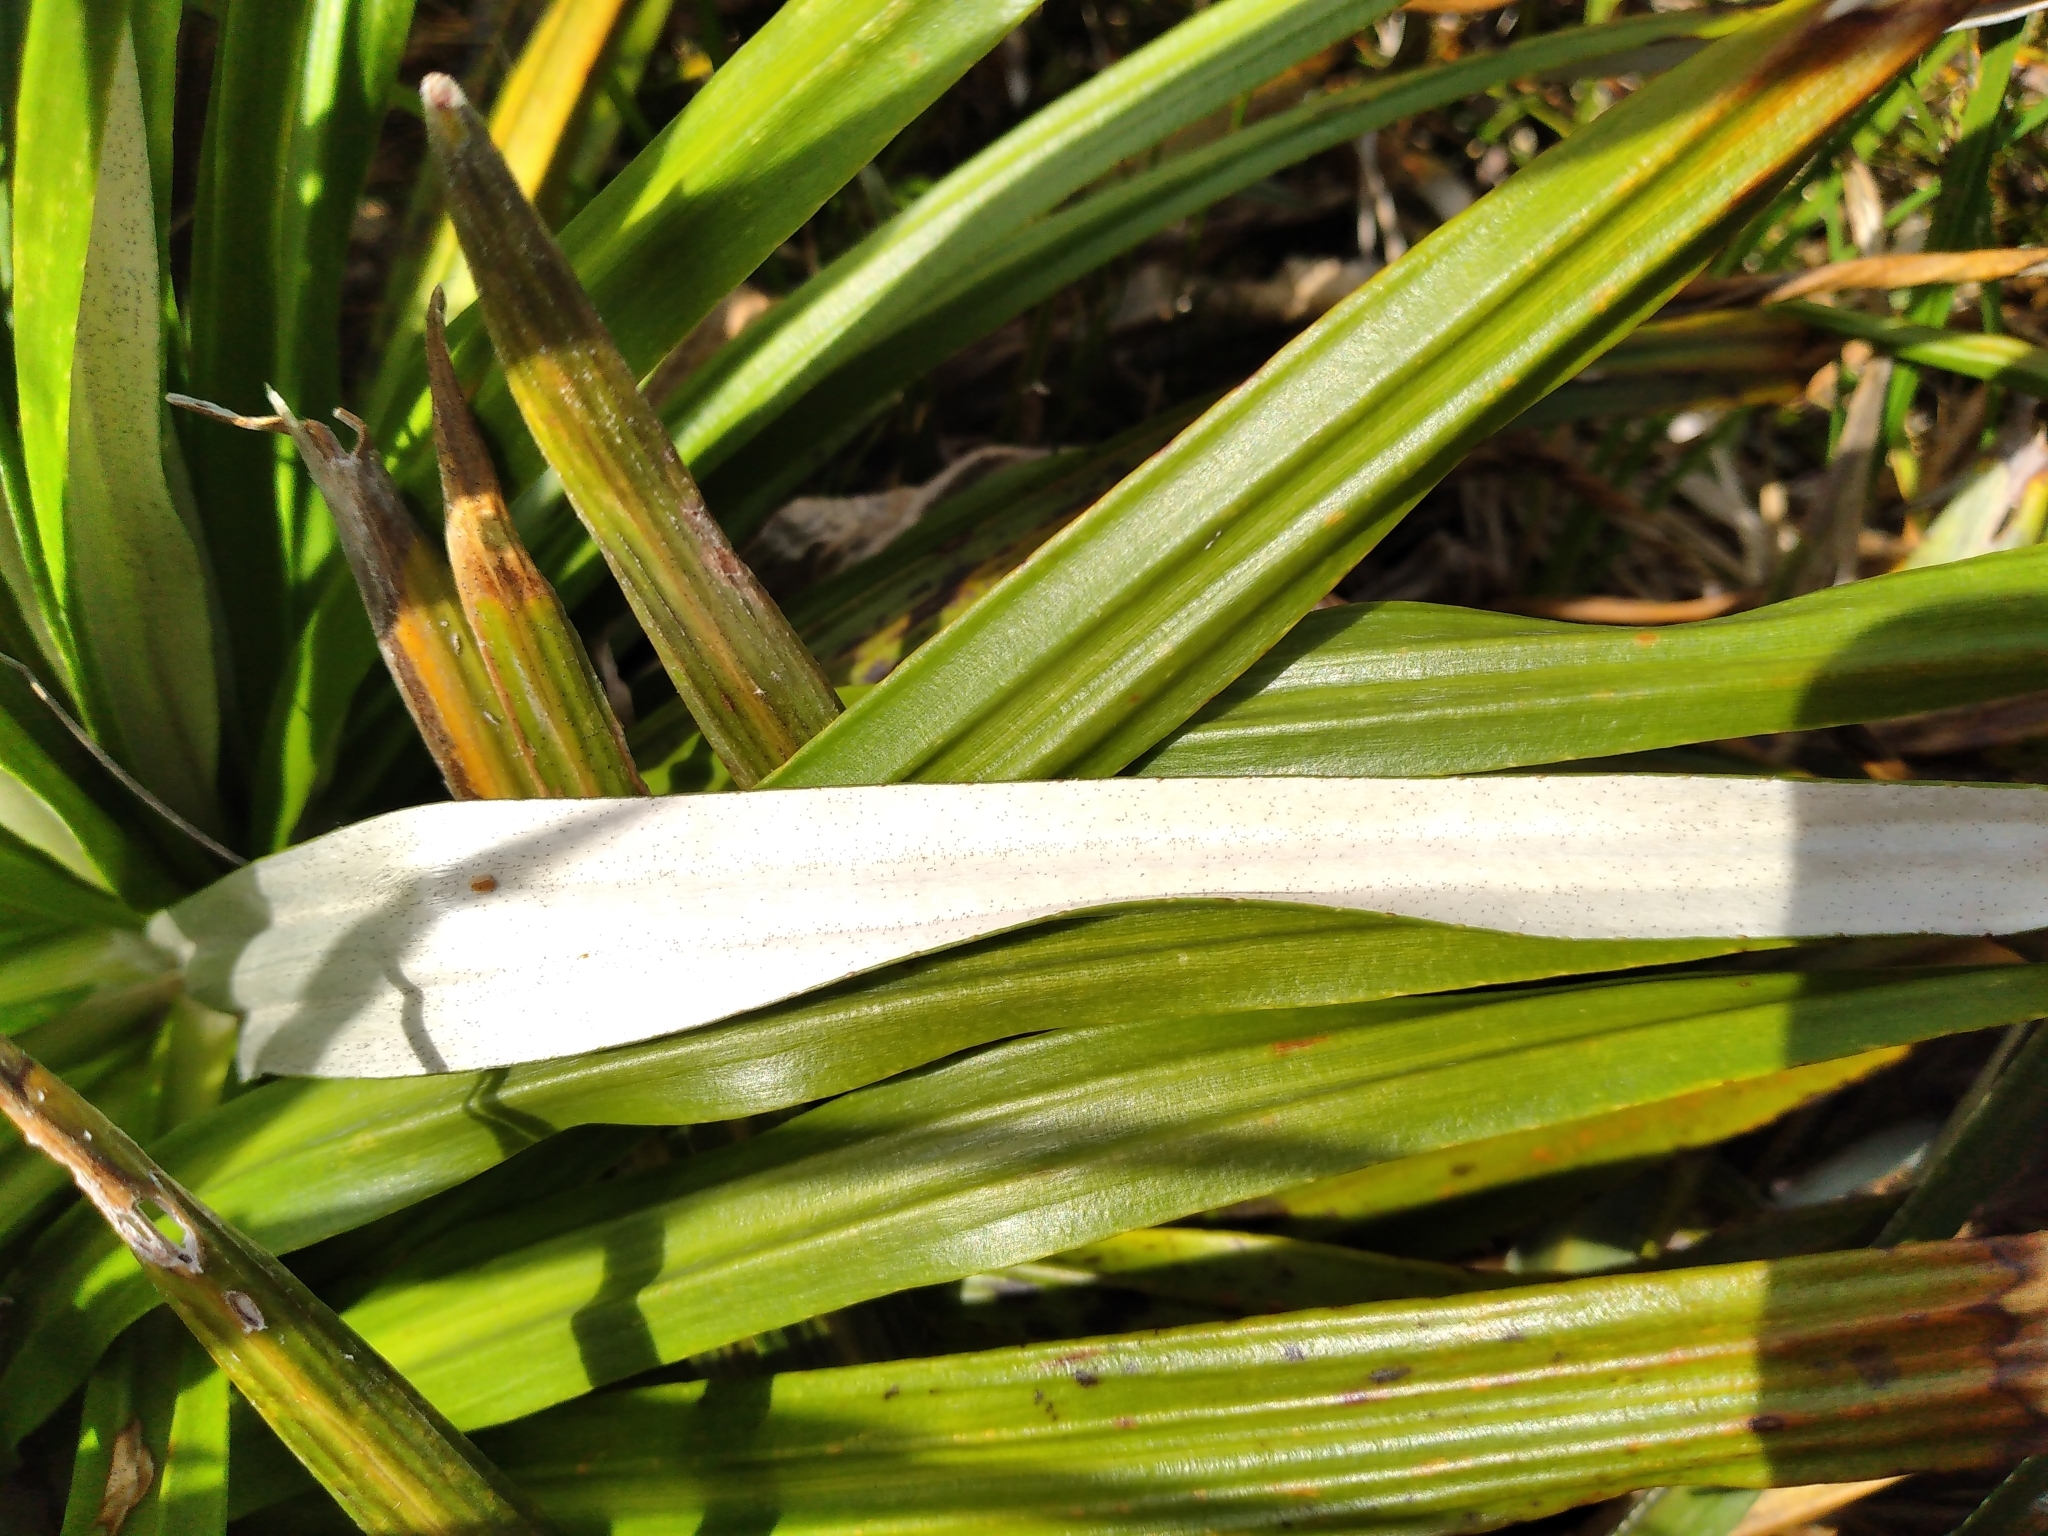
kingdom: Plantae
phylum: Tracheophyta
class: Magnoliopsida
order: Asterales
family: Asteraceae
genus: Celmisia
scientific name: Celmisia petriei
